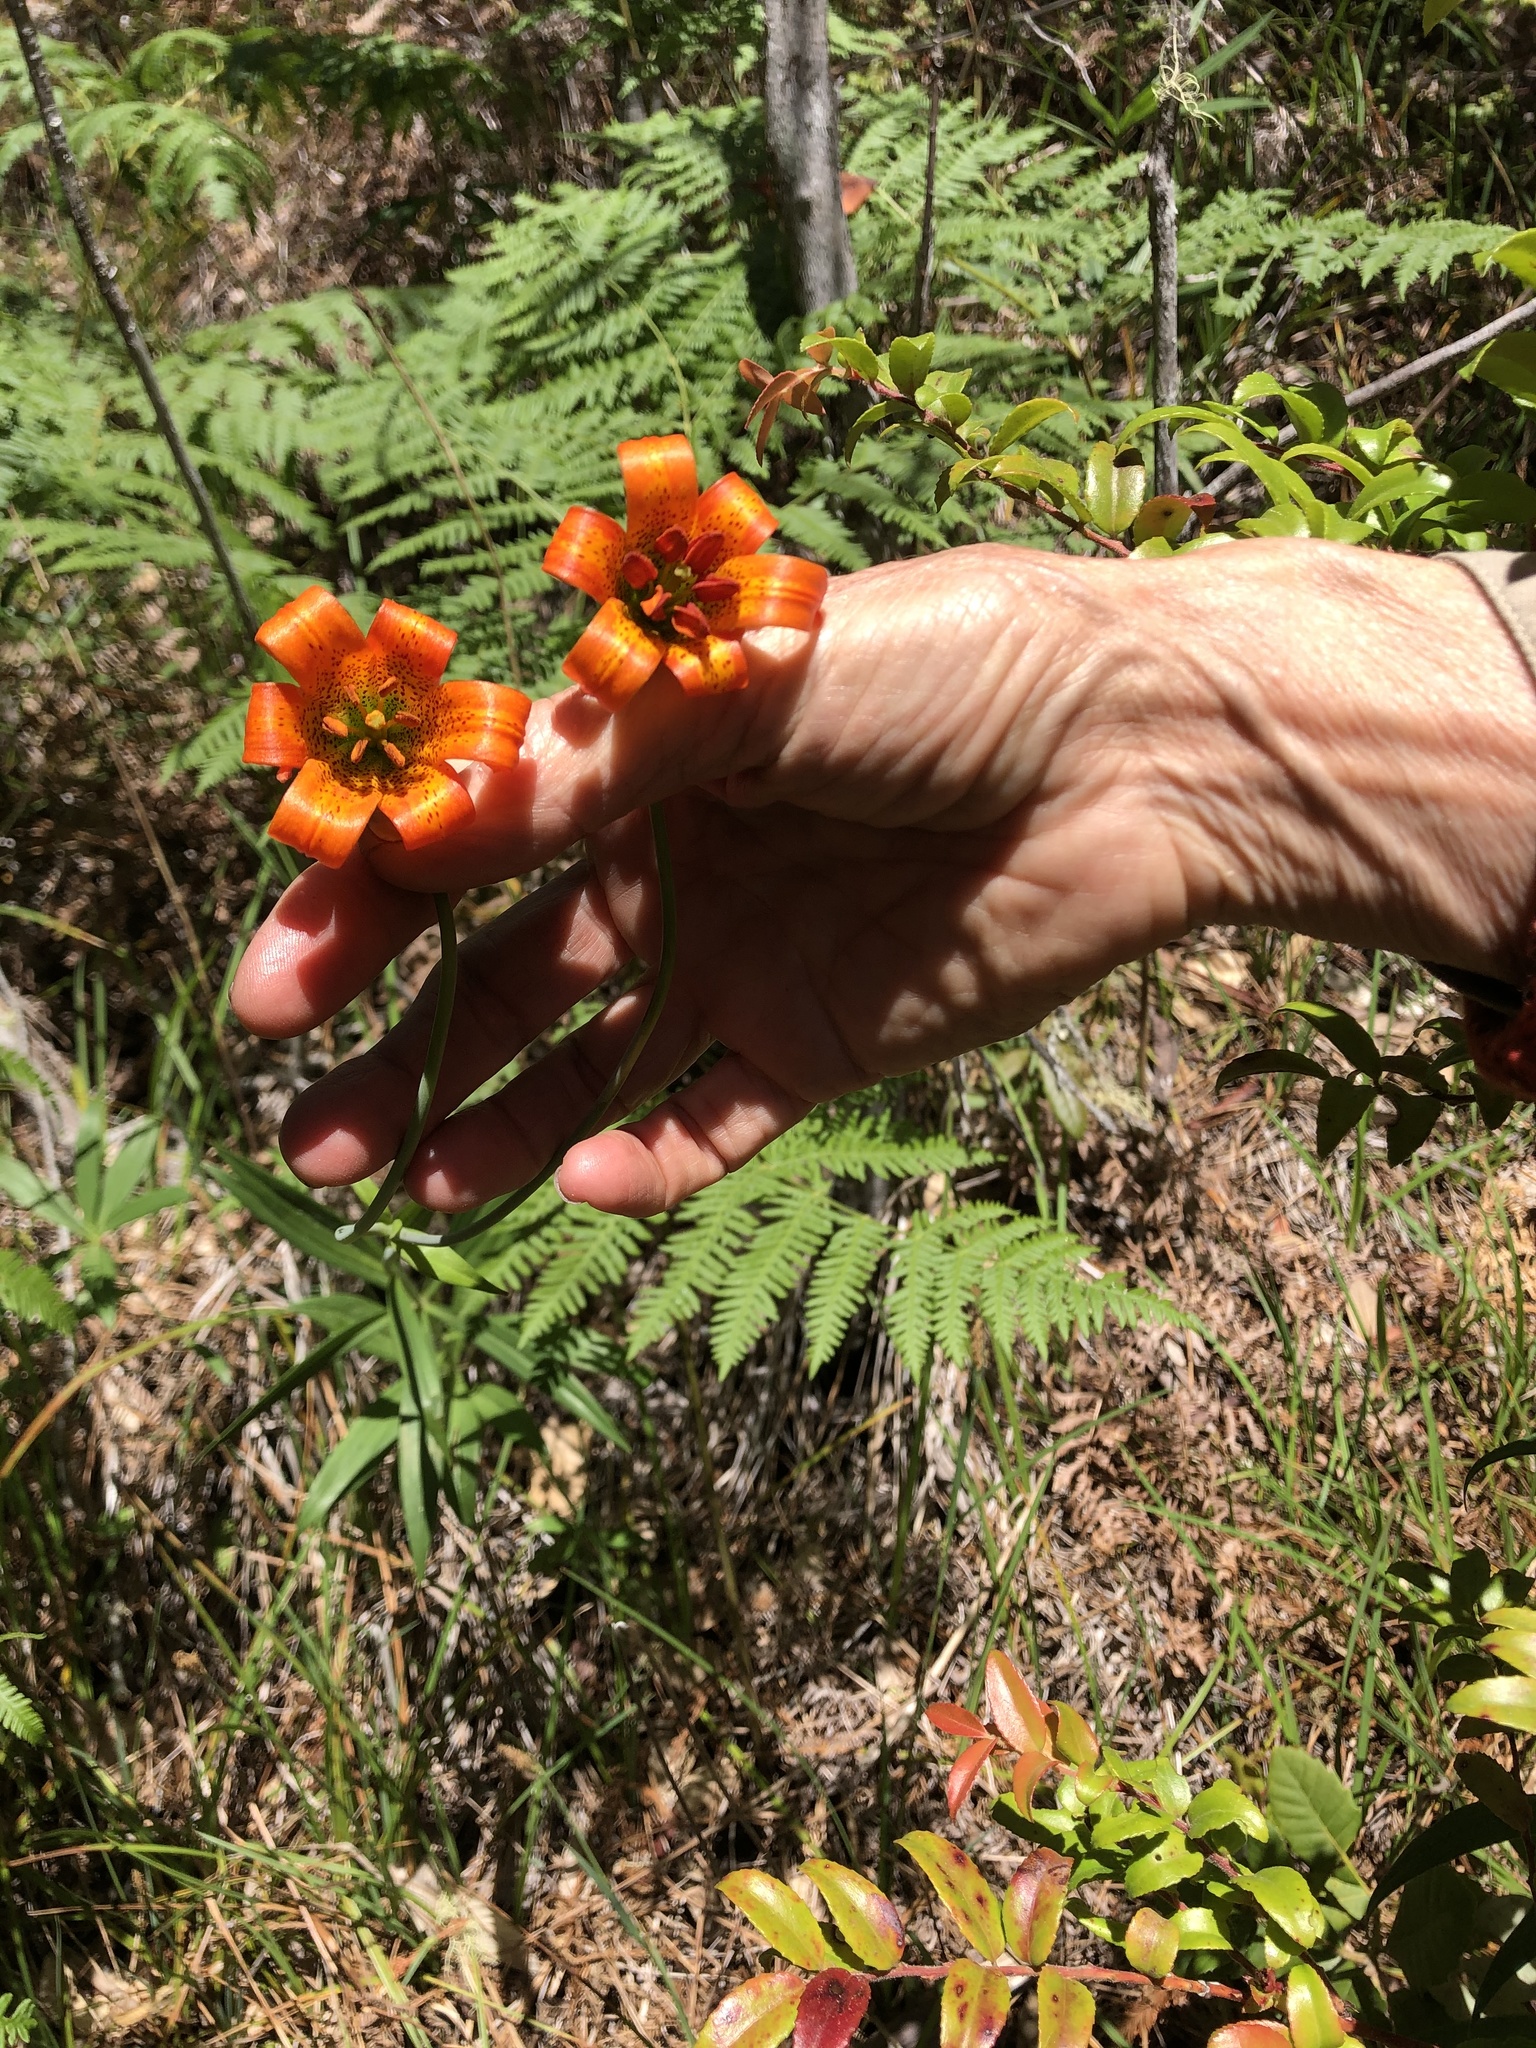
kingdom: Plantae
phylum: Tracheophyta
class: Liliopsida
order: Liliales
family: Liliaceae
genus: Lilium
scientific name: Lilium maritimum
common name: Coastal lily
